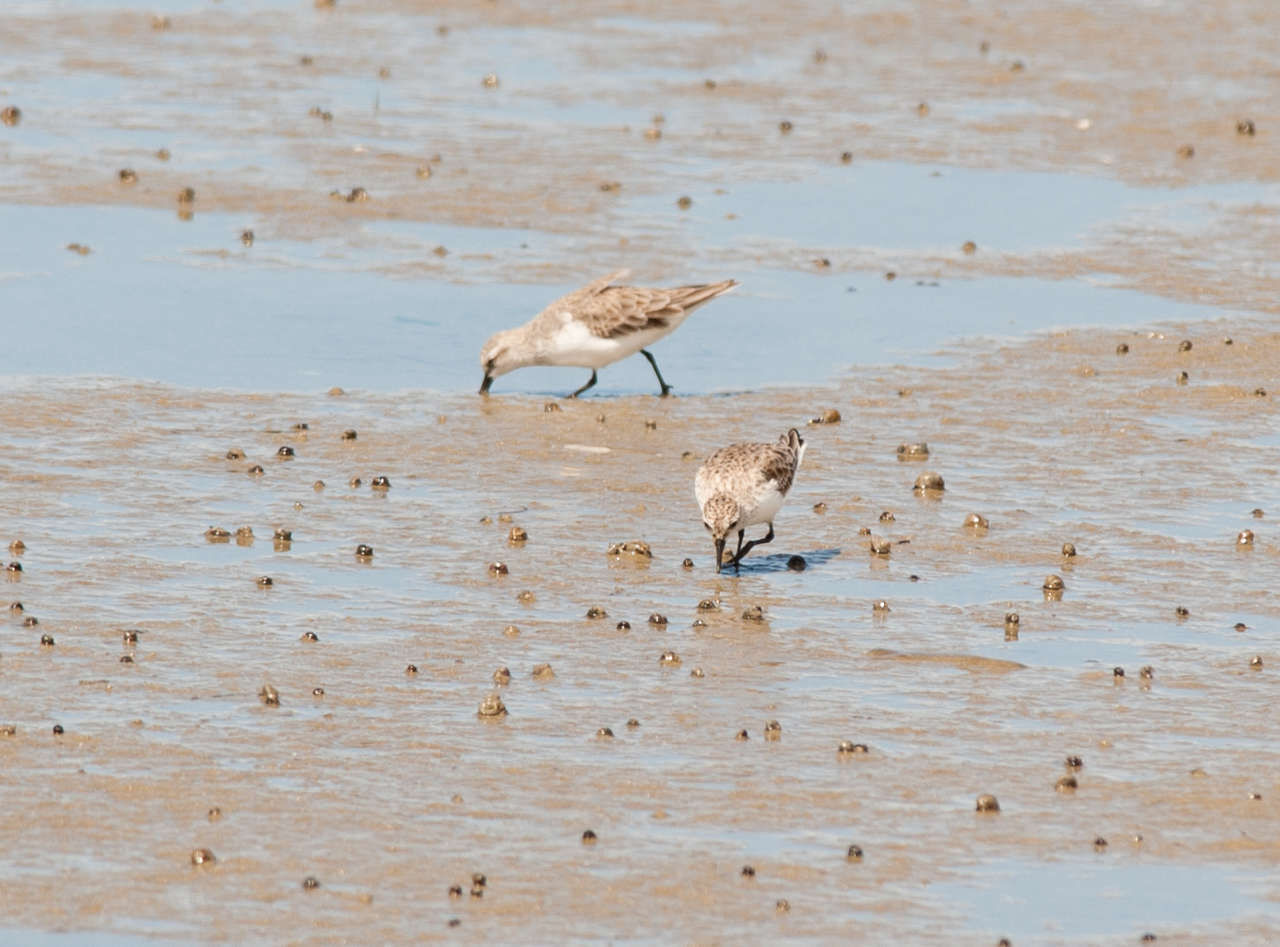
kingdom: Animalia
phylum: Chordata
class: Aves
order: Charadriiformes
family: Scolopacidae
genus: Calidris
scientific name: Calidris ruficollis
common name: Red-necked stint
